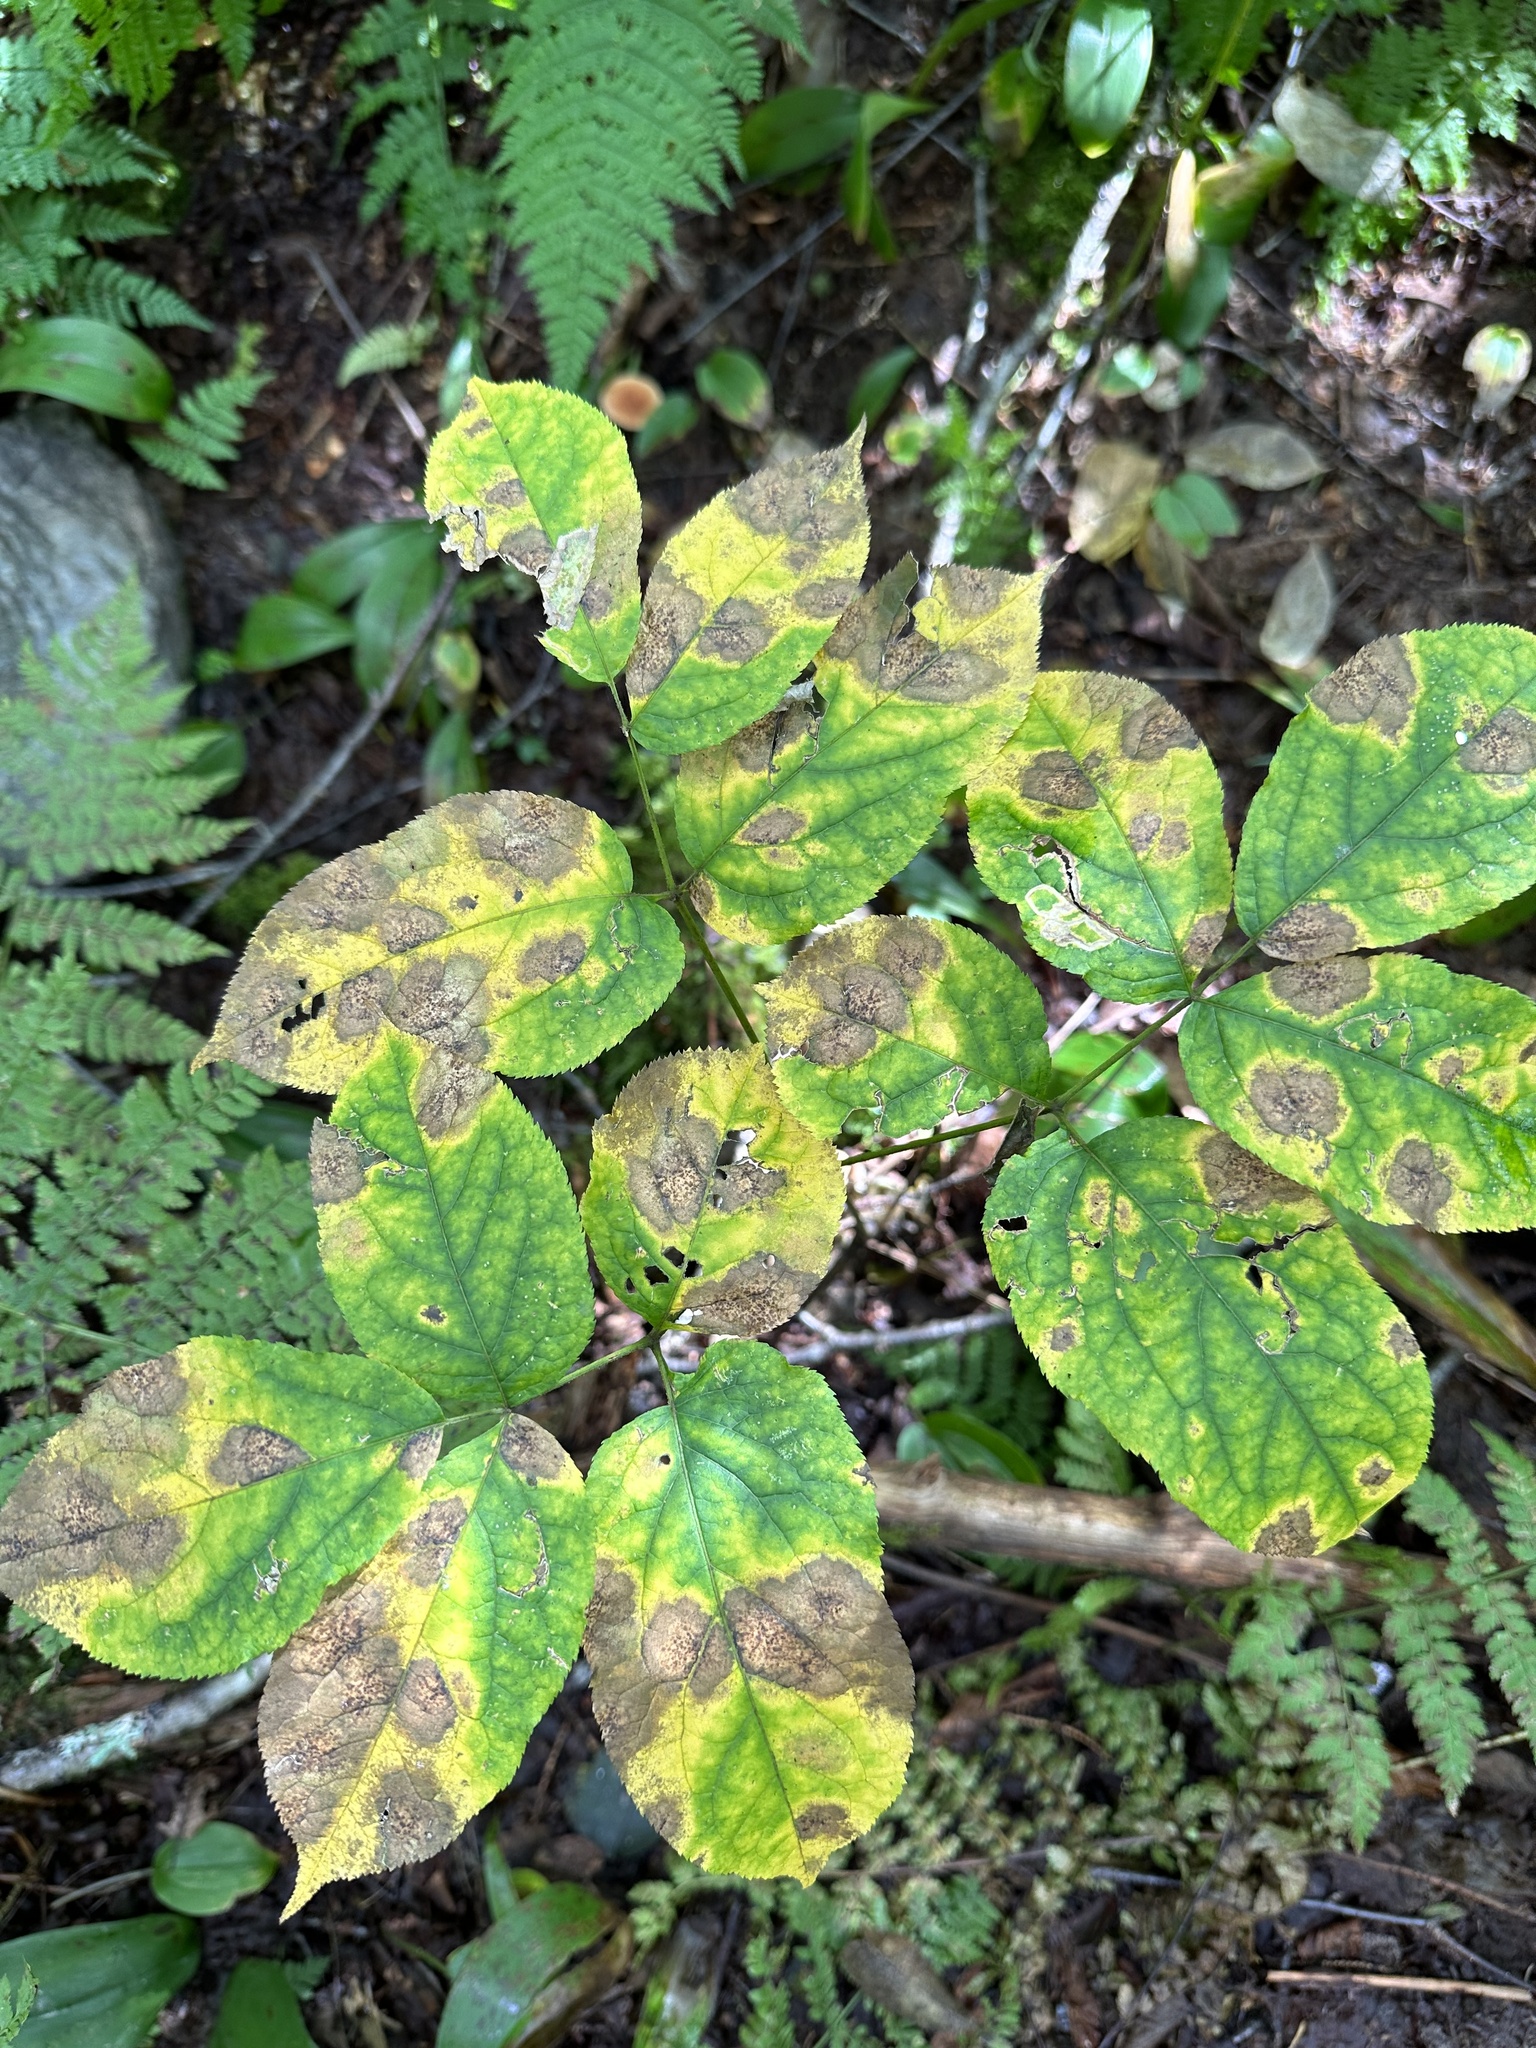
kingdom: Plantae
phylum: Tracheophyta
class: Magnoliopsida
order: Apiales
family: Araliaceae
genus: Aralia
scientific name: Aralia nudicaulis
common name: Wild sarsaparilla
